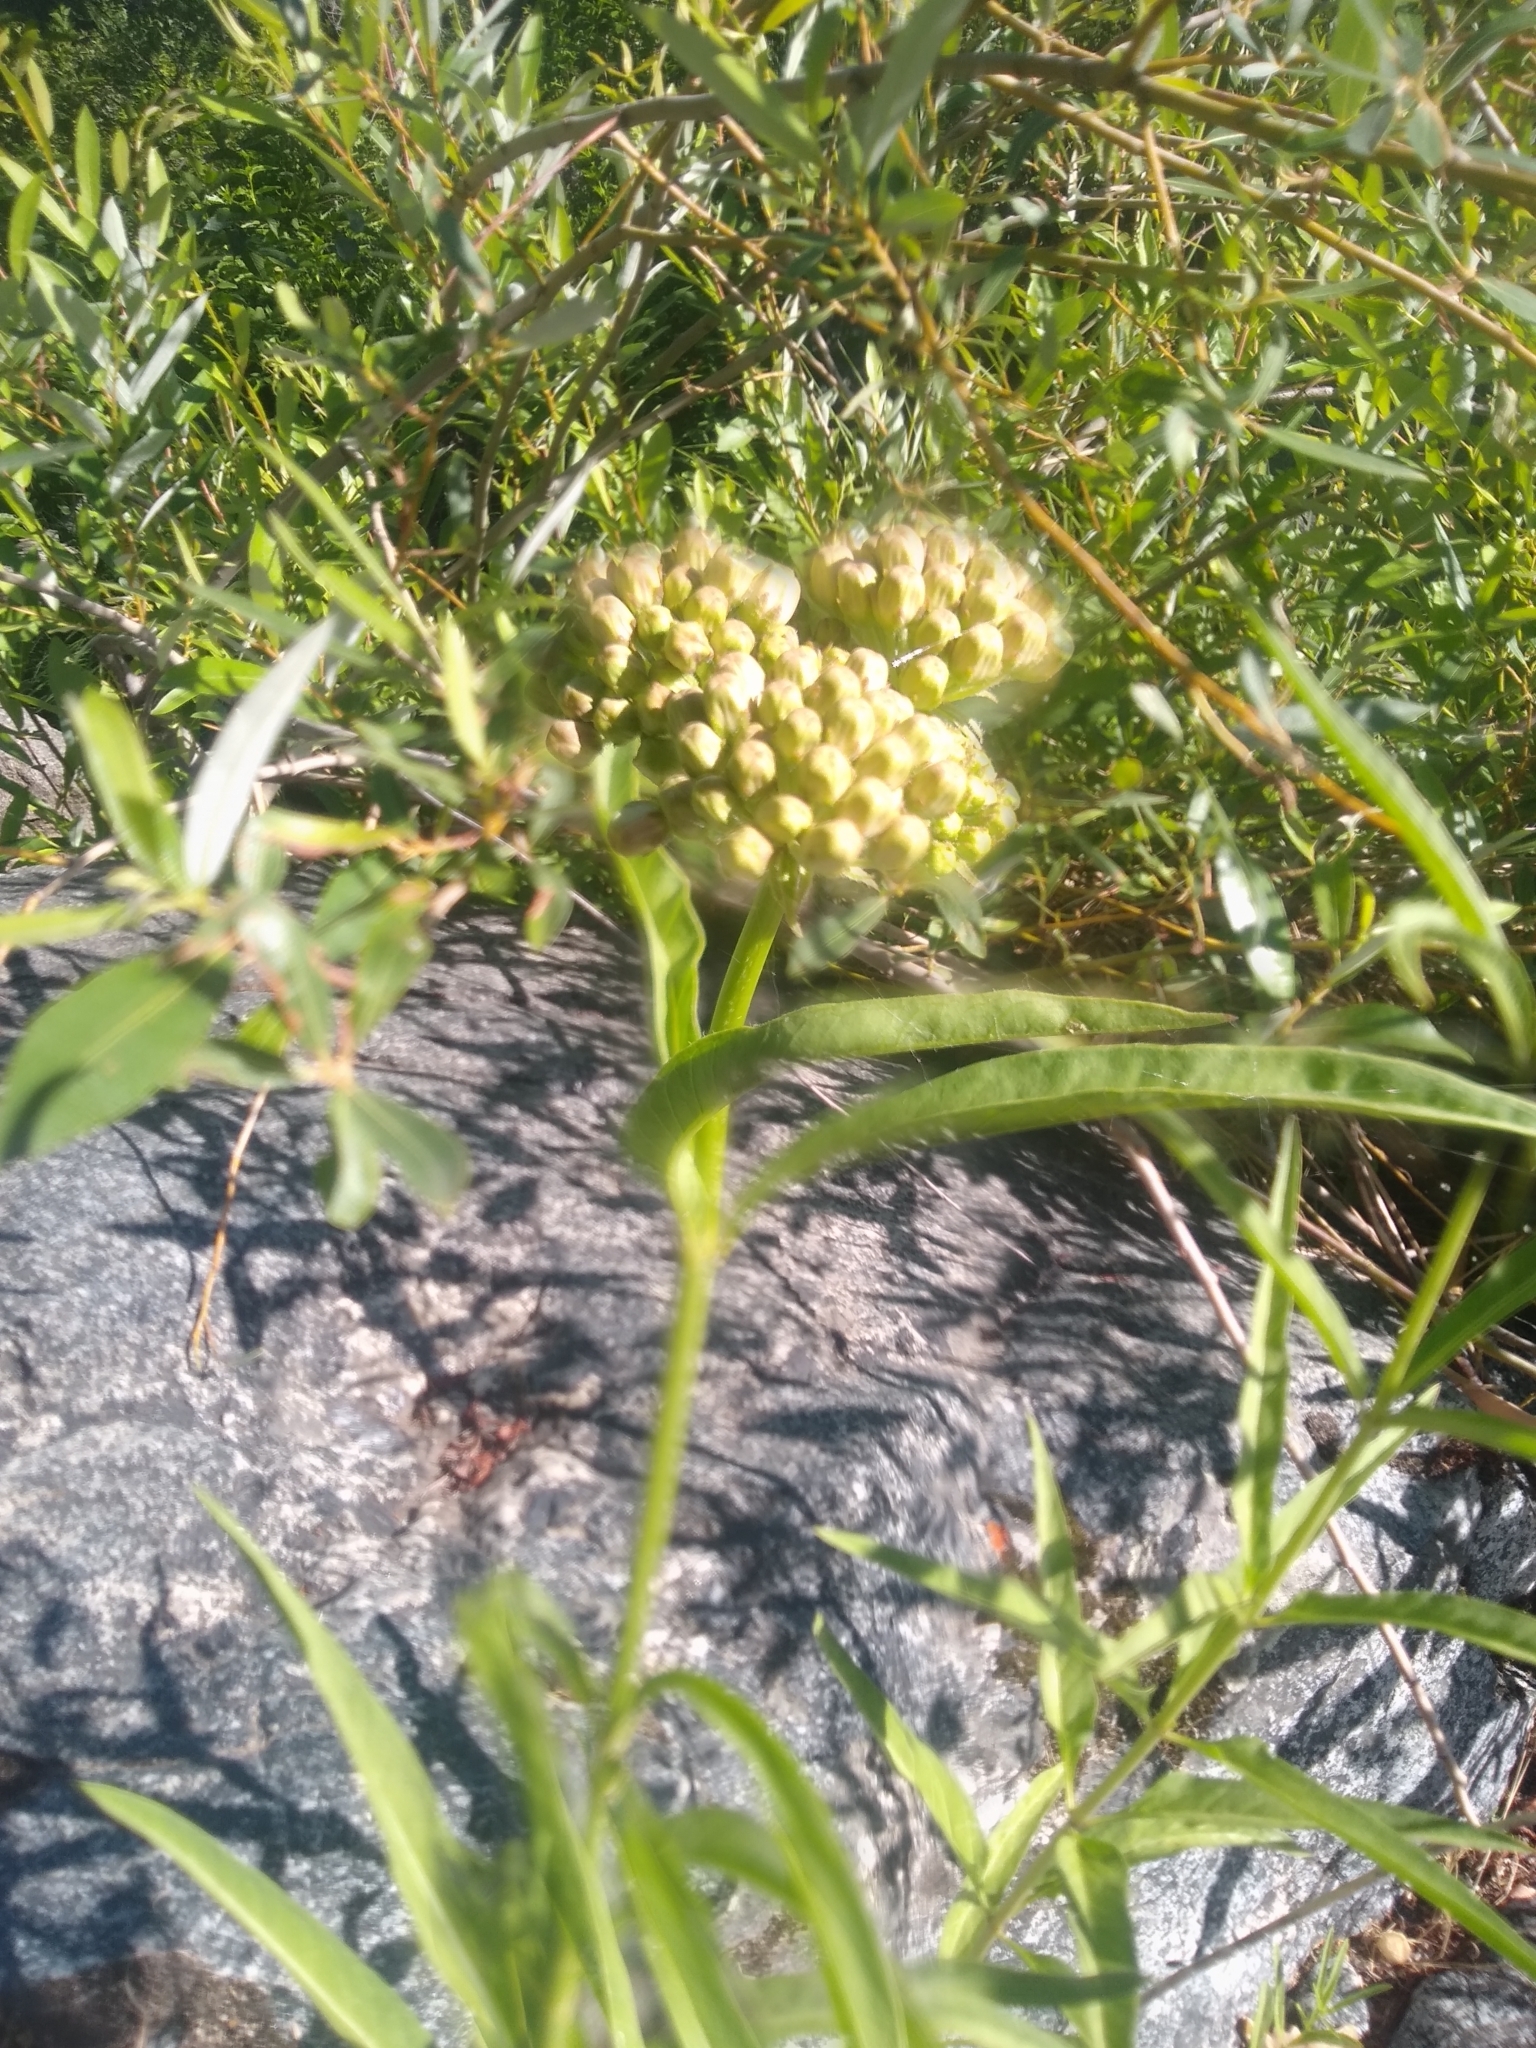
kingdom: Plantae
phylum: Tracheophyta
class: Magnoliopsida
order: Gentianales
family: Apocynaceae
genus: Asclepias
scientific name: Asclepias fascicularis
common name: Mexican milkweed
